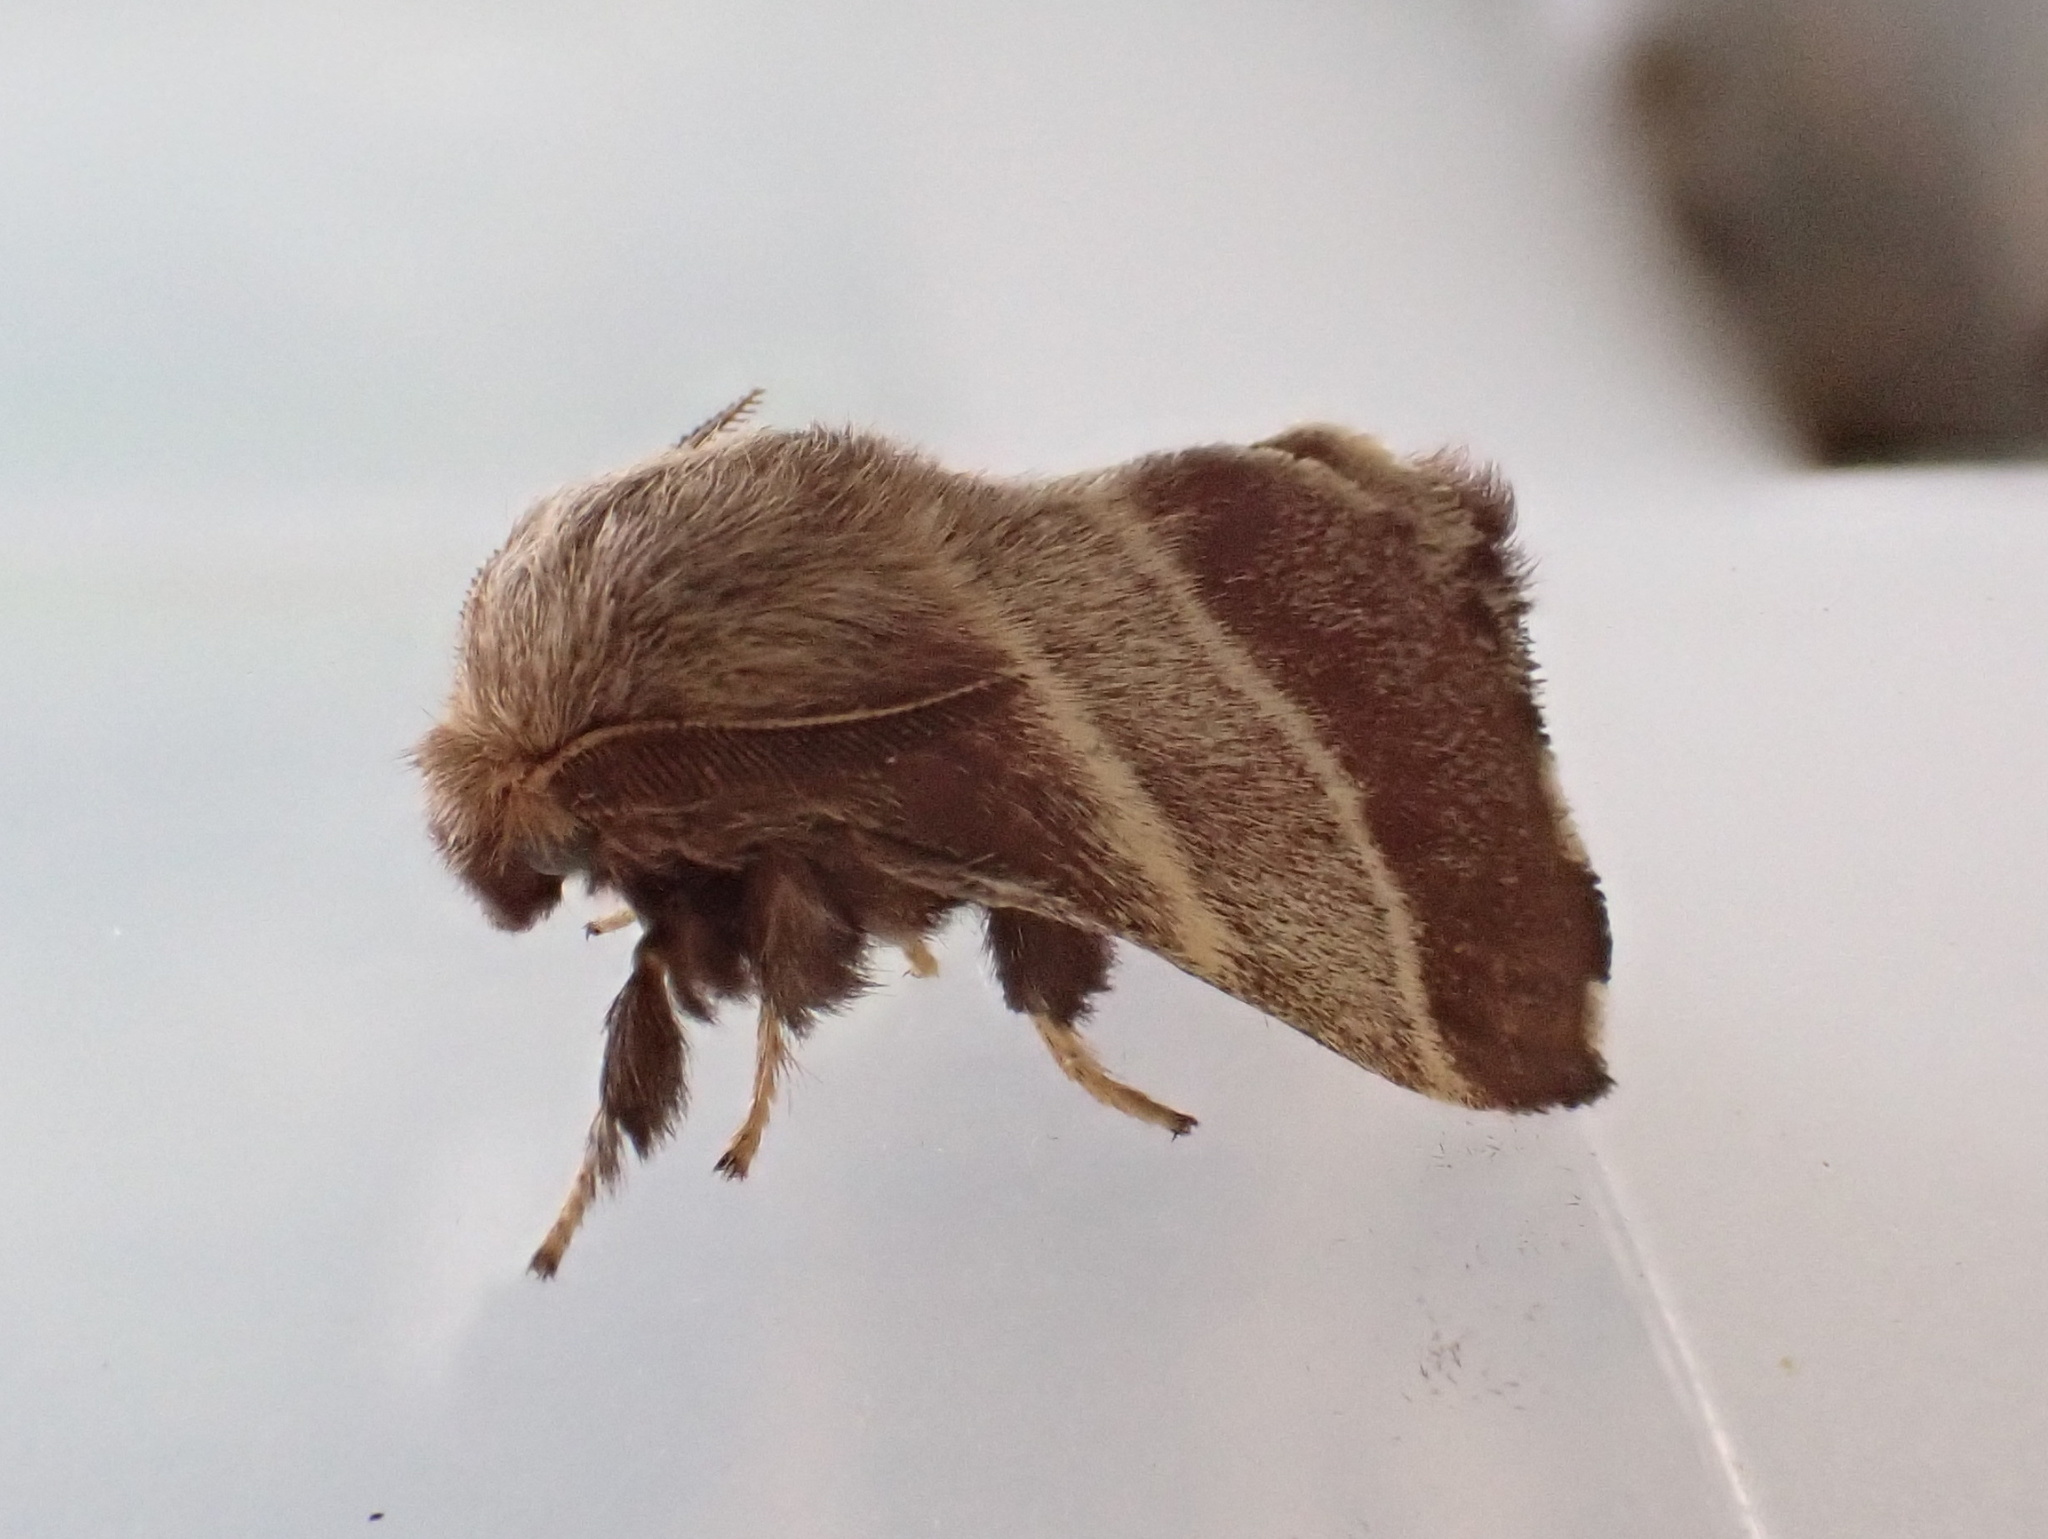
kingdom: Animalia
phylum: Arthropoda
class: Insecta
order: Lepidoptera
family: Lasiocampidae
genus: Malacosoma
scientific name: Malacosoma americana
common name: Eastern tent caterpillar moth
